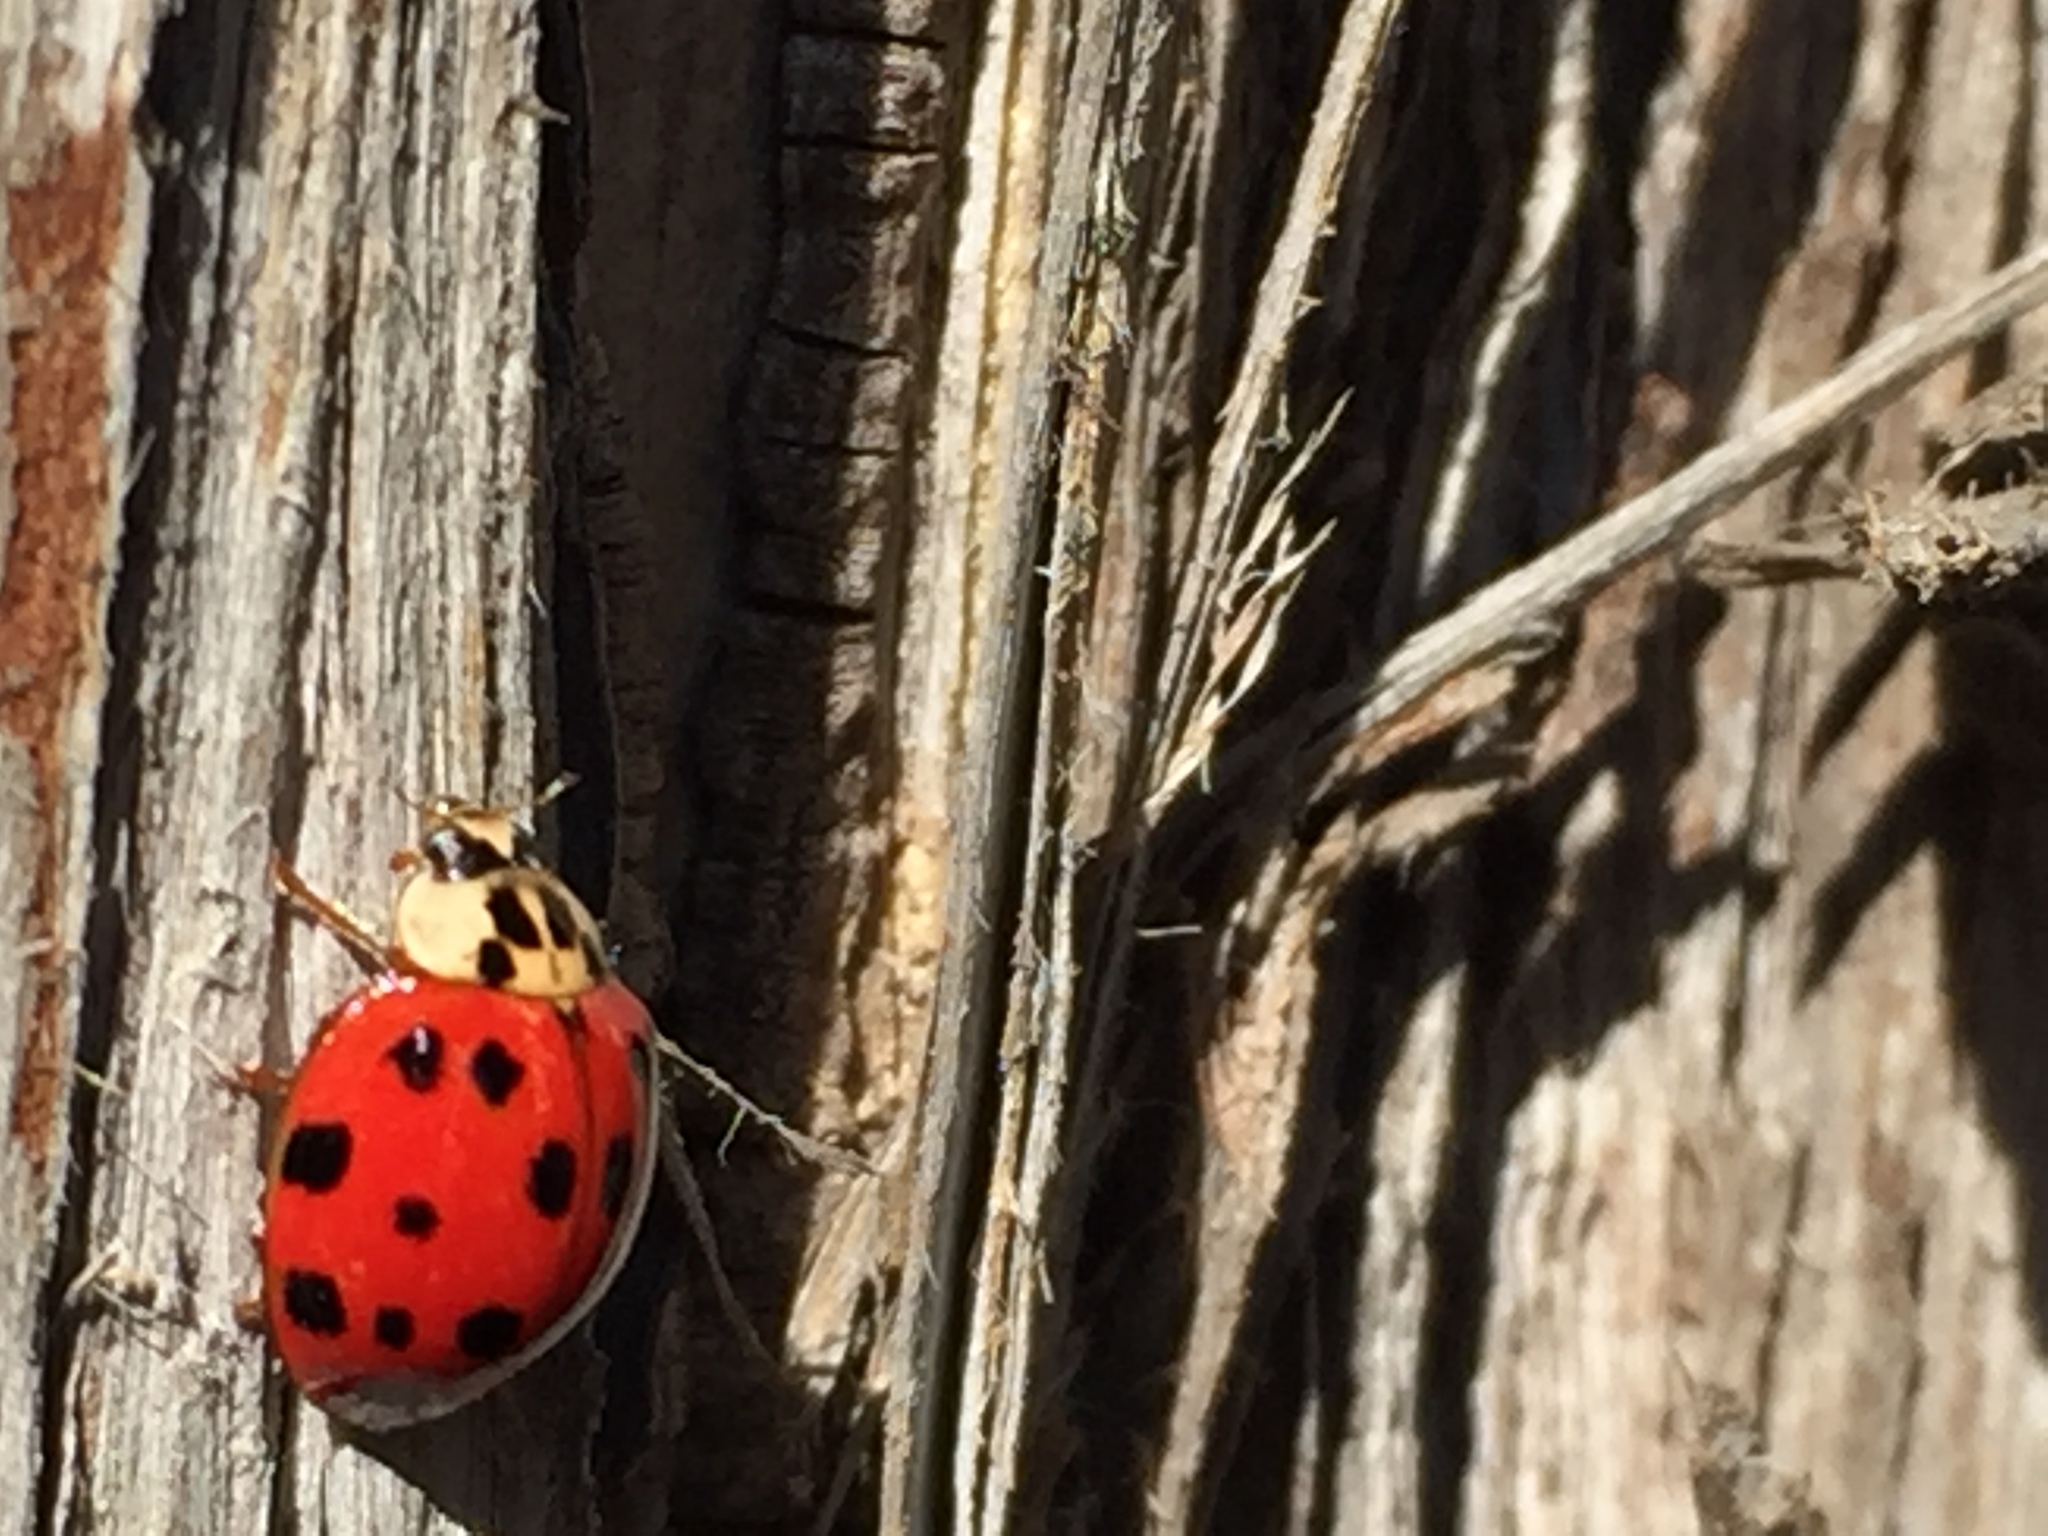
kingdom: Animalia
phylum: Arthropoda
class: Insecta
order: Coleoptera
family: Coccinellidae
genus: Harmonia
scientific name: Harmonia axyridis
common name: Harlequin ladybird
